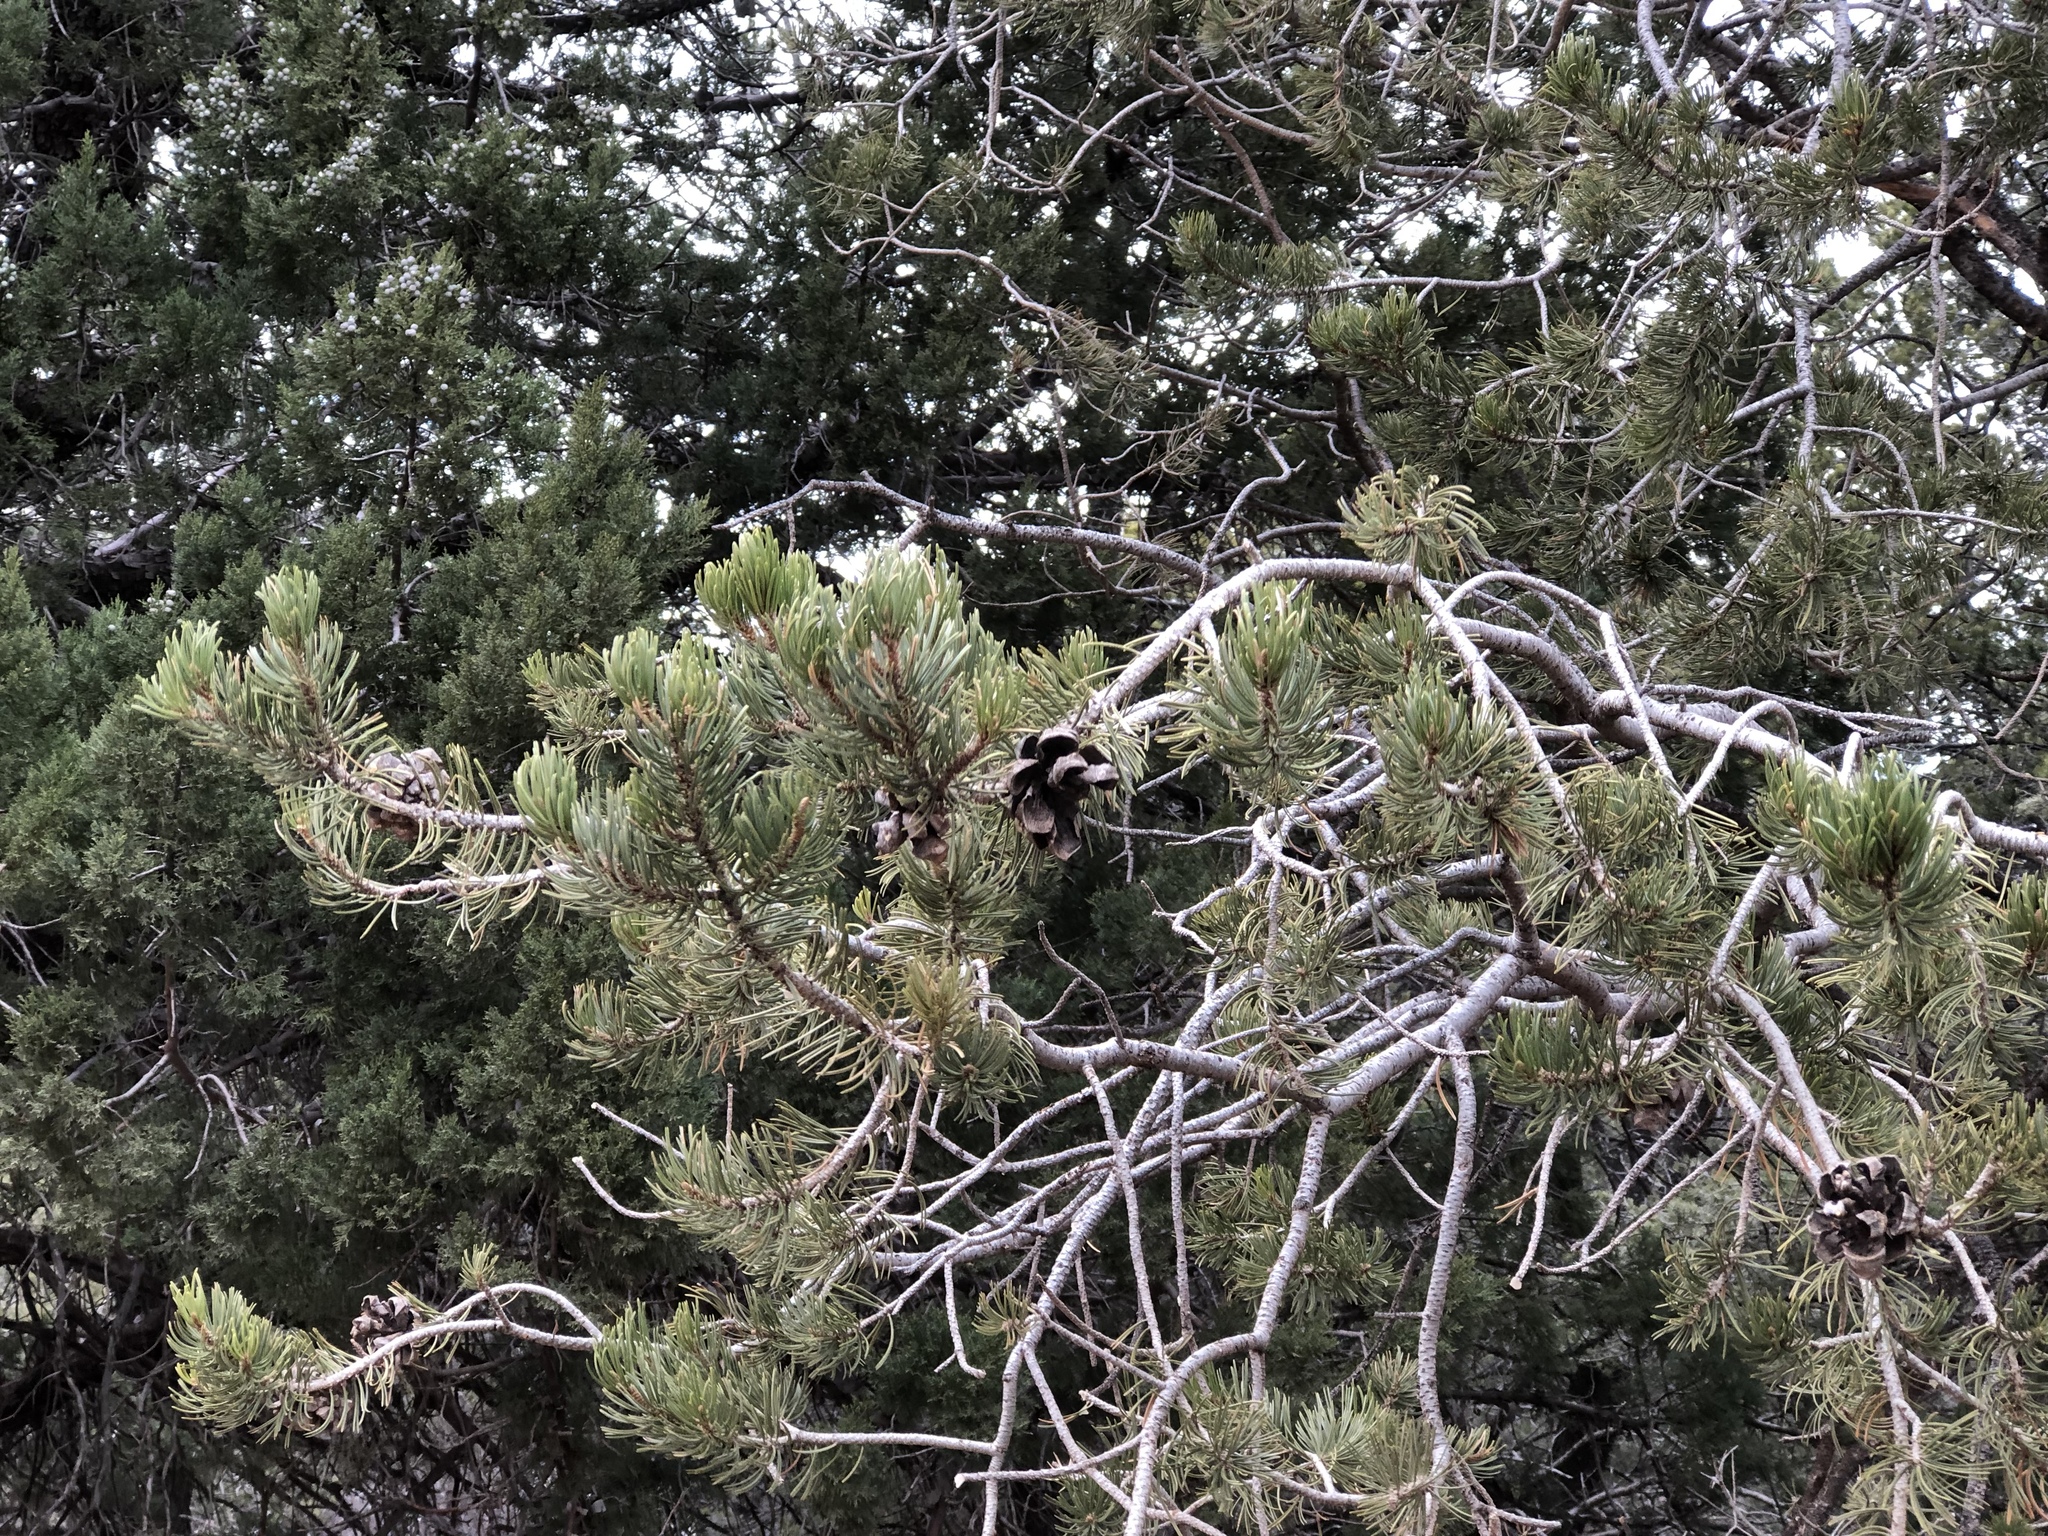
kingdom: Plantae
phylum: Tracheophyta
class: Pinopsida
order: Pinales
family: Pinaceae
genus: Pinus
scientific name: Pinus edulis
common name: Colorado pinyon
